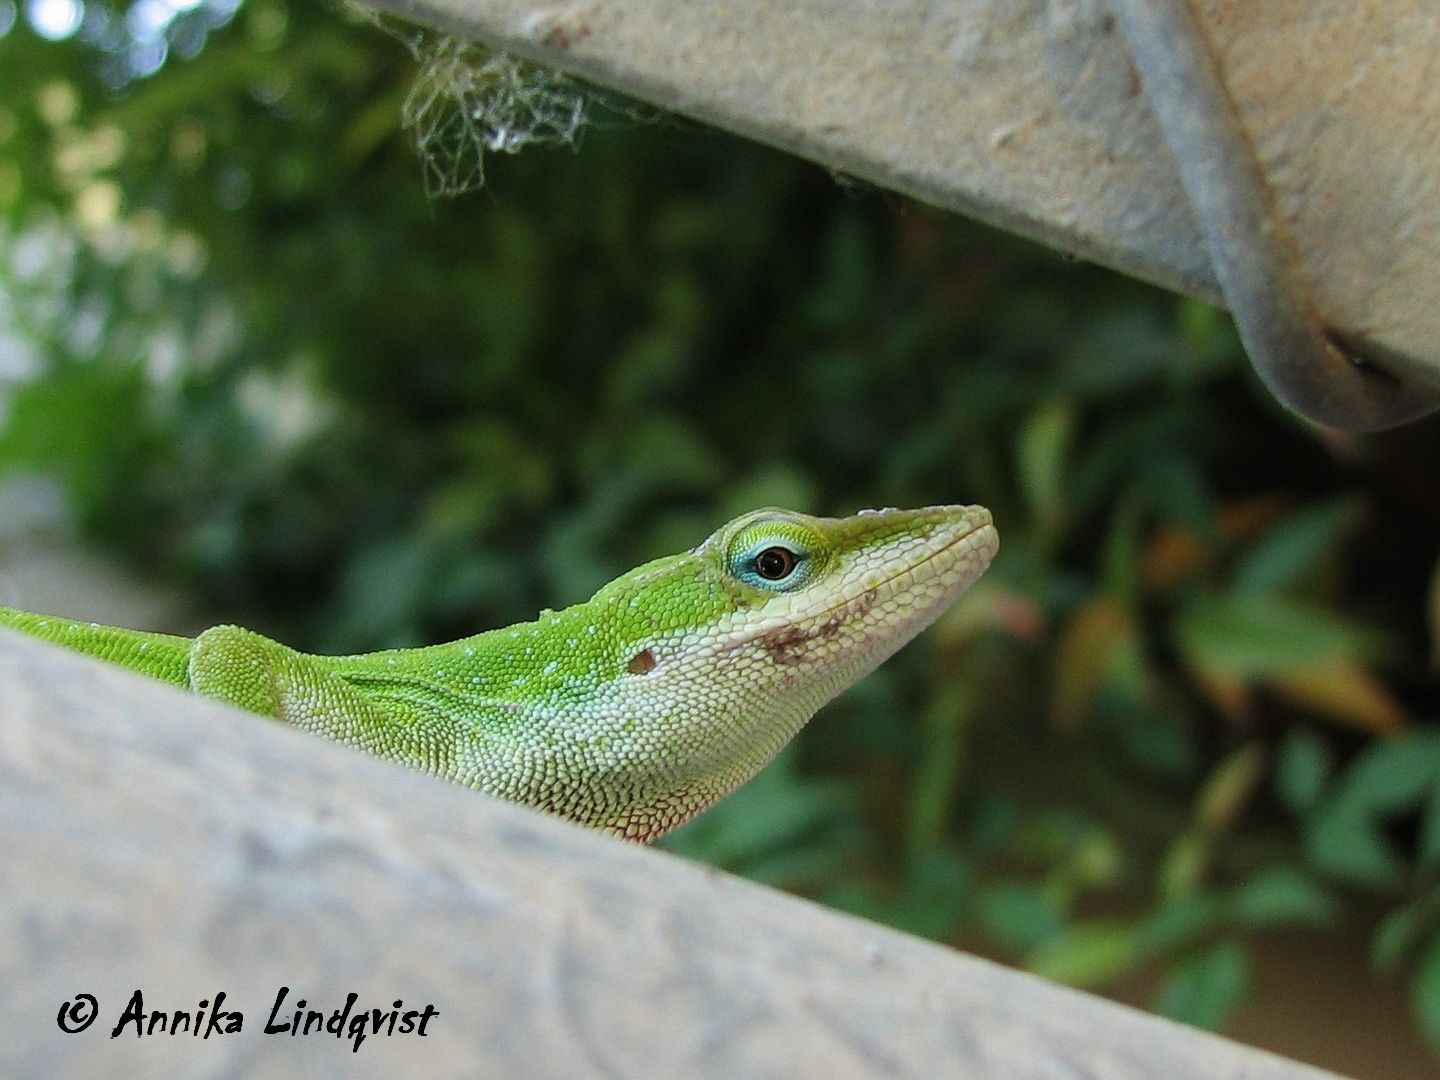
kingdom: Animalia
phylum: Chordata
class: Squamata
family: Dactyloidae
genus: Anolis
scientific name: Anolis carolinensis
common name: Green anole
